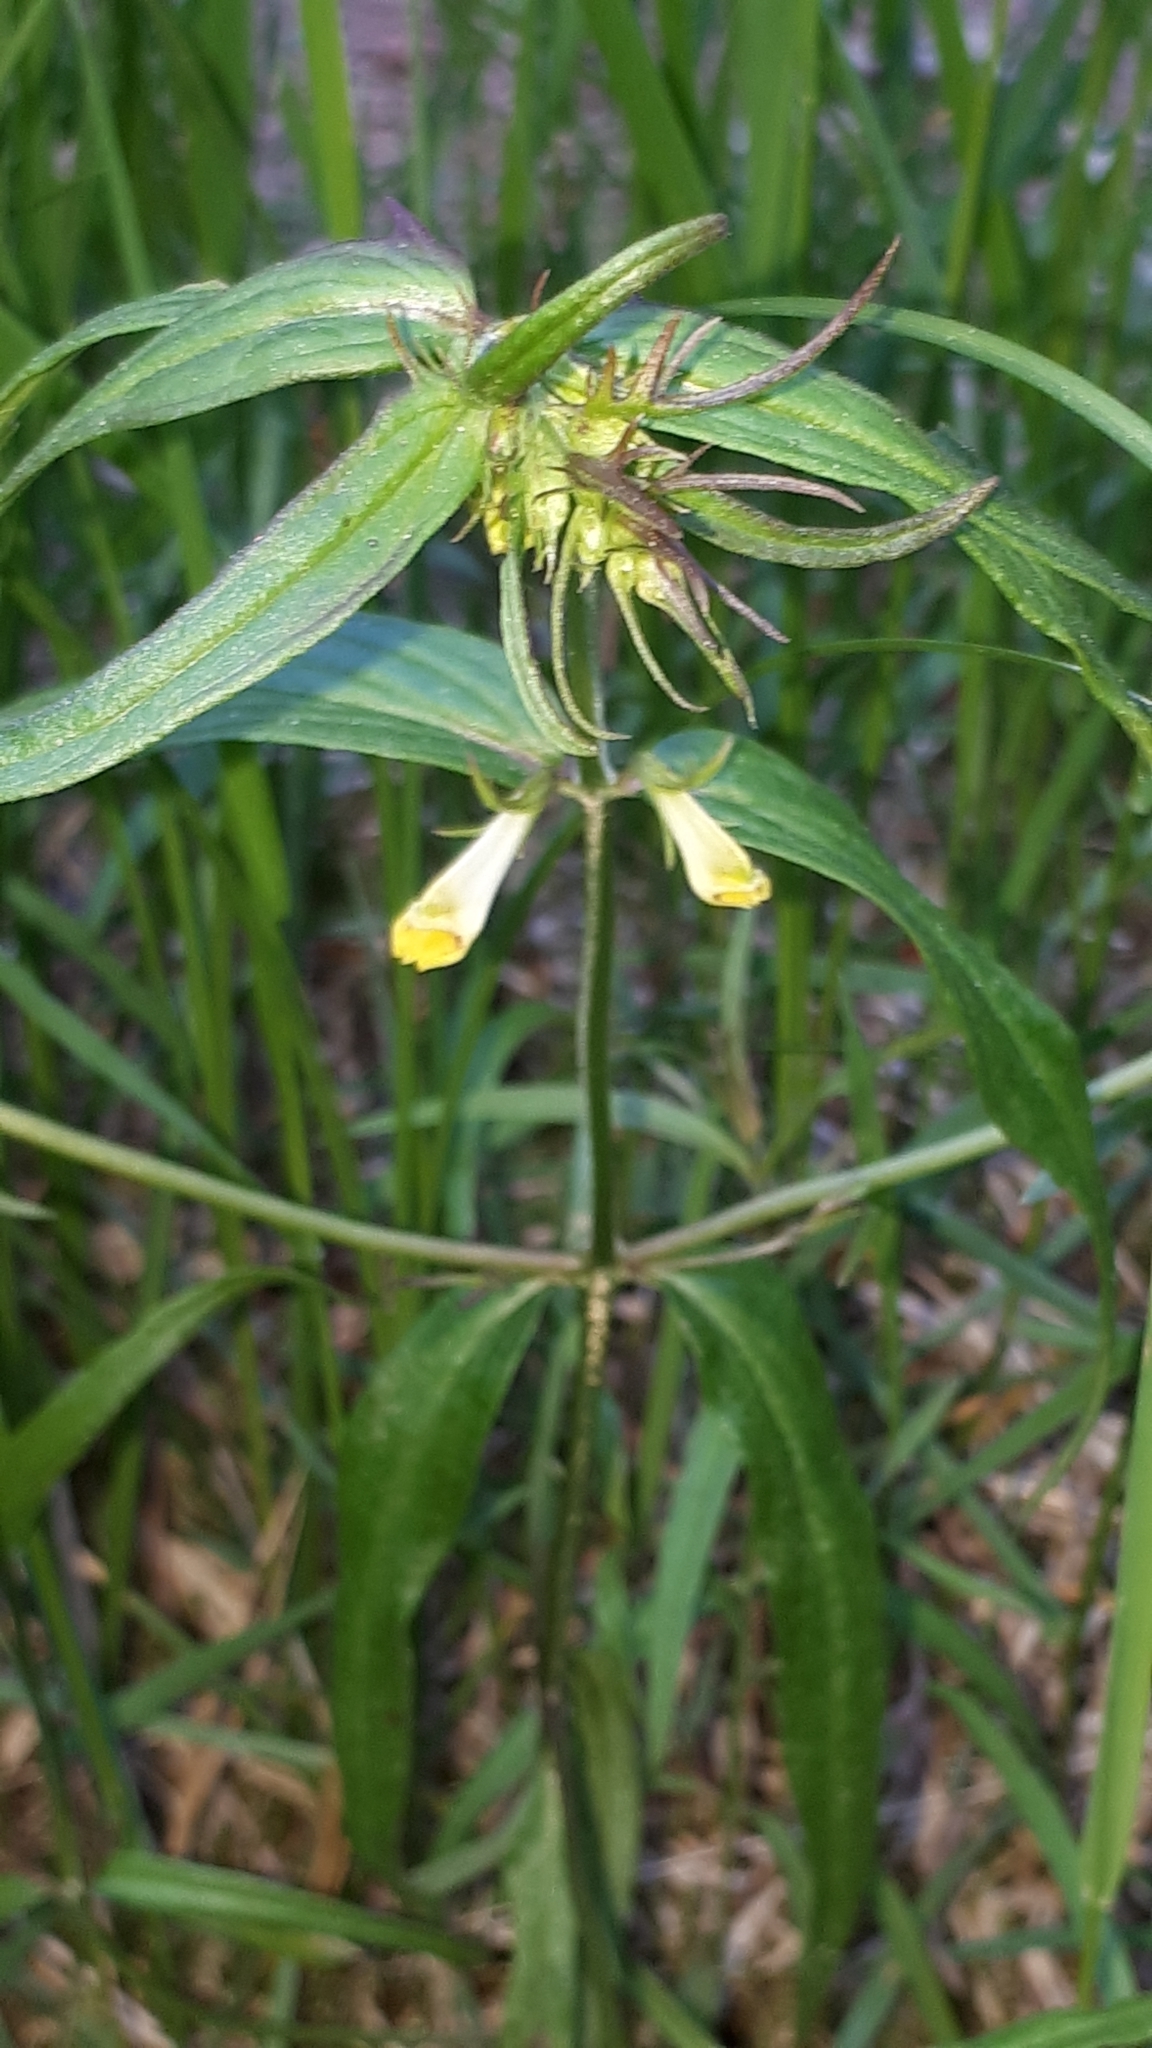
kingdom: Plantae
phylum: Tracheophyta
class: Magnoliopsida
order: Lamiales
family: Orobanchaceae
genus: Melampyrum
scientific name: Melampyrum pratense
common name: Common cow-wheat
